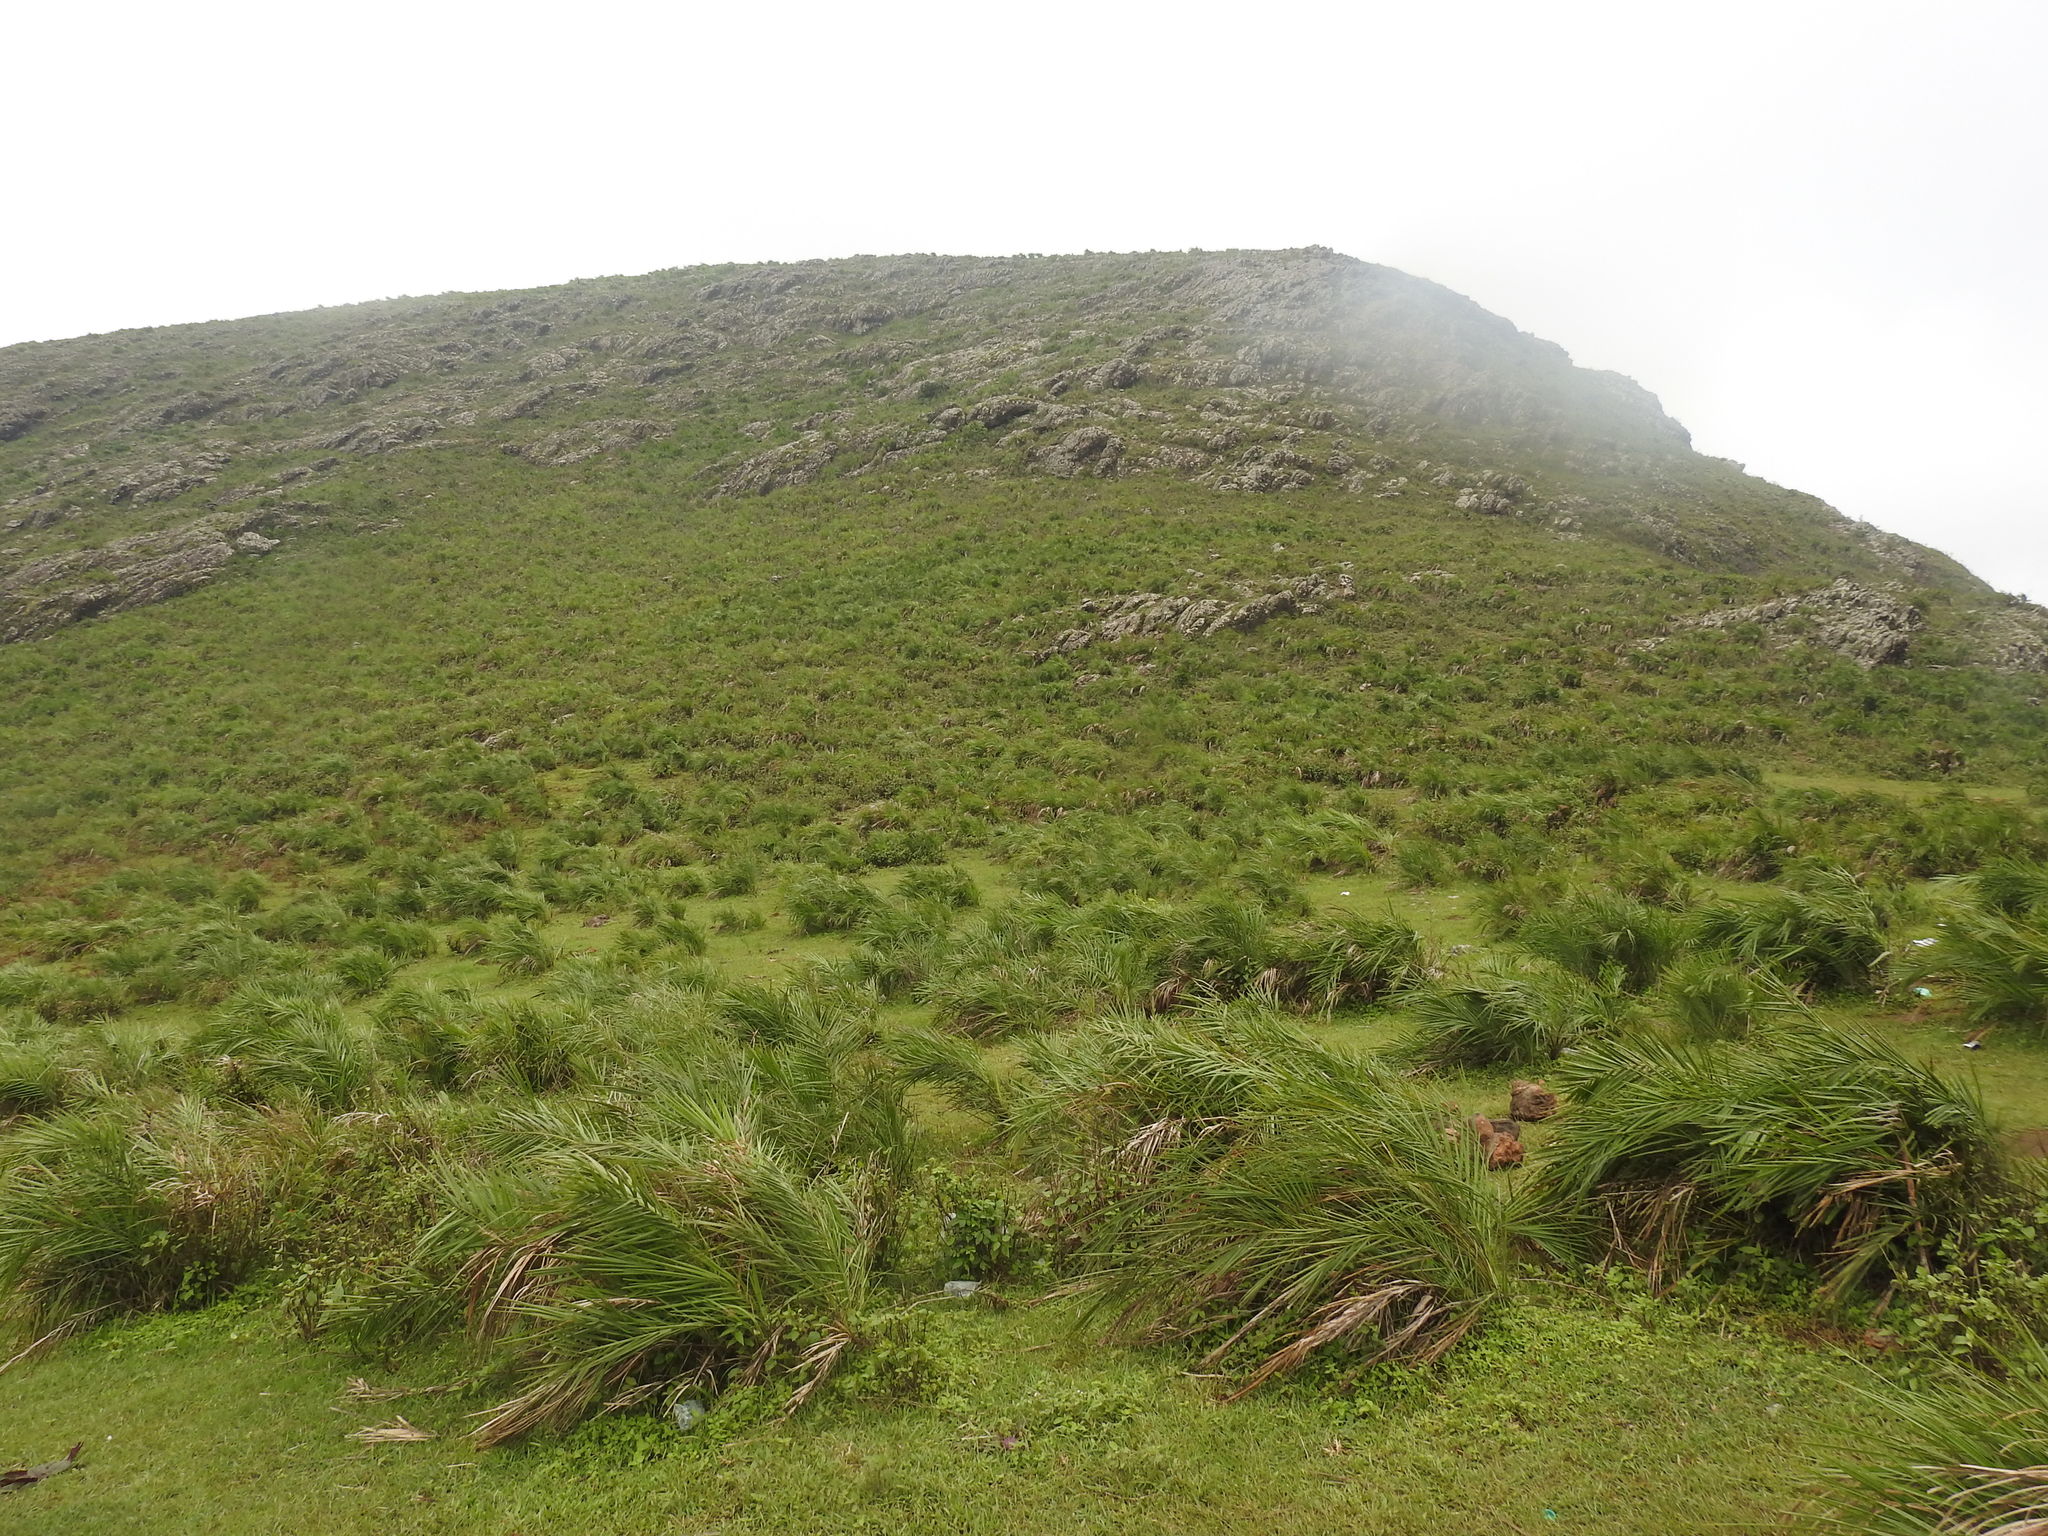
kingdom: Plantae
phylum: Tracheophyta
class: Liliopsida
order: Arecales
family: Arecaceae
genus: Phoenix
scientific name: Phoenix loureiroi
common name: Loureiro's palm
